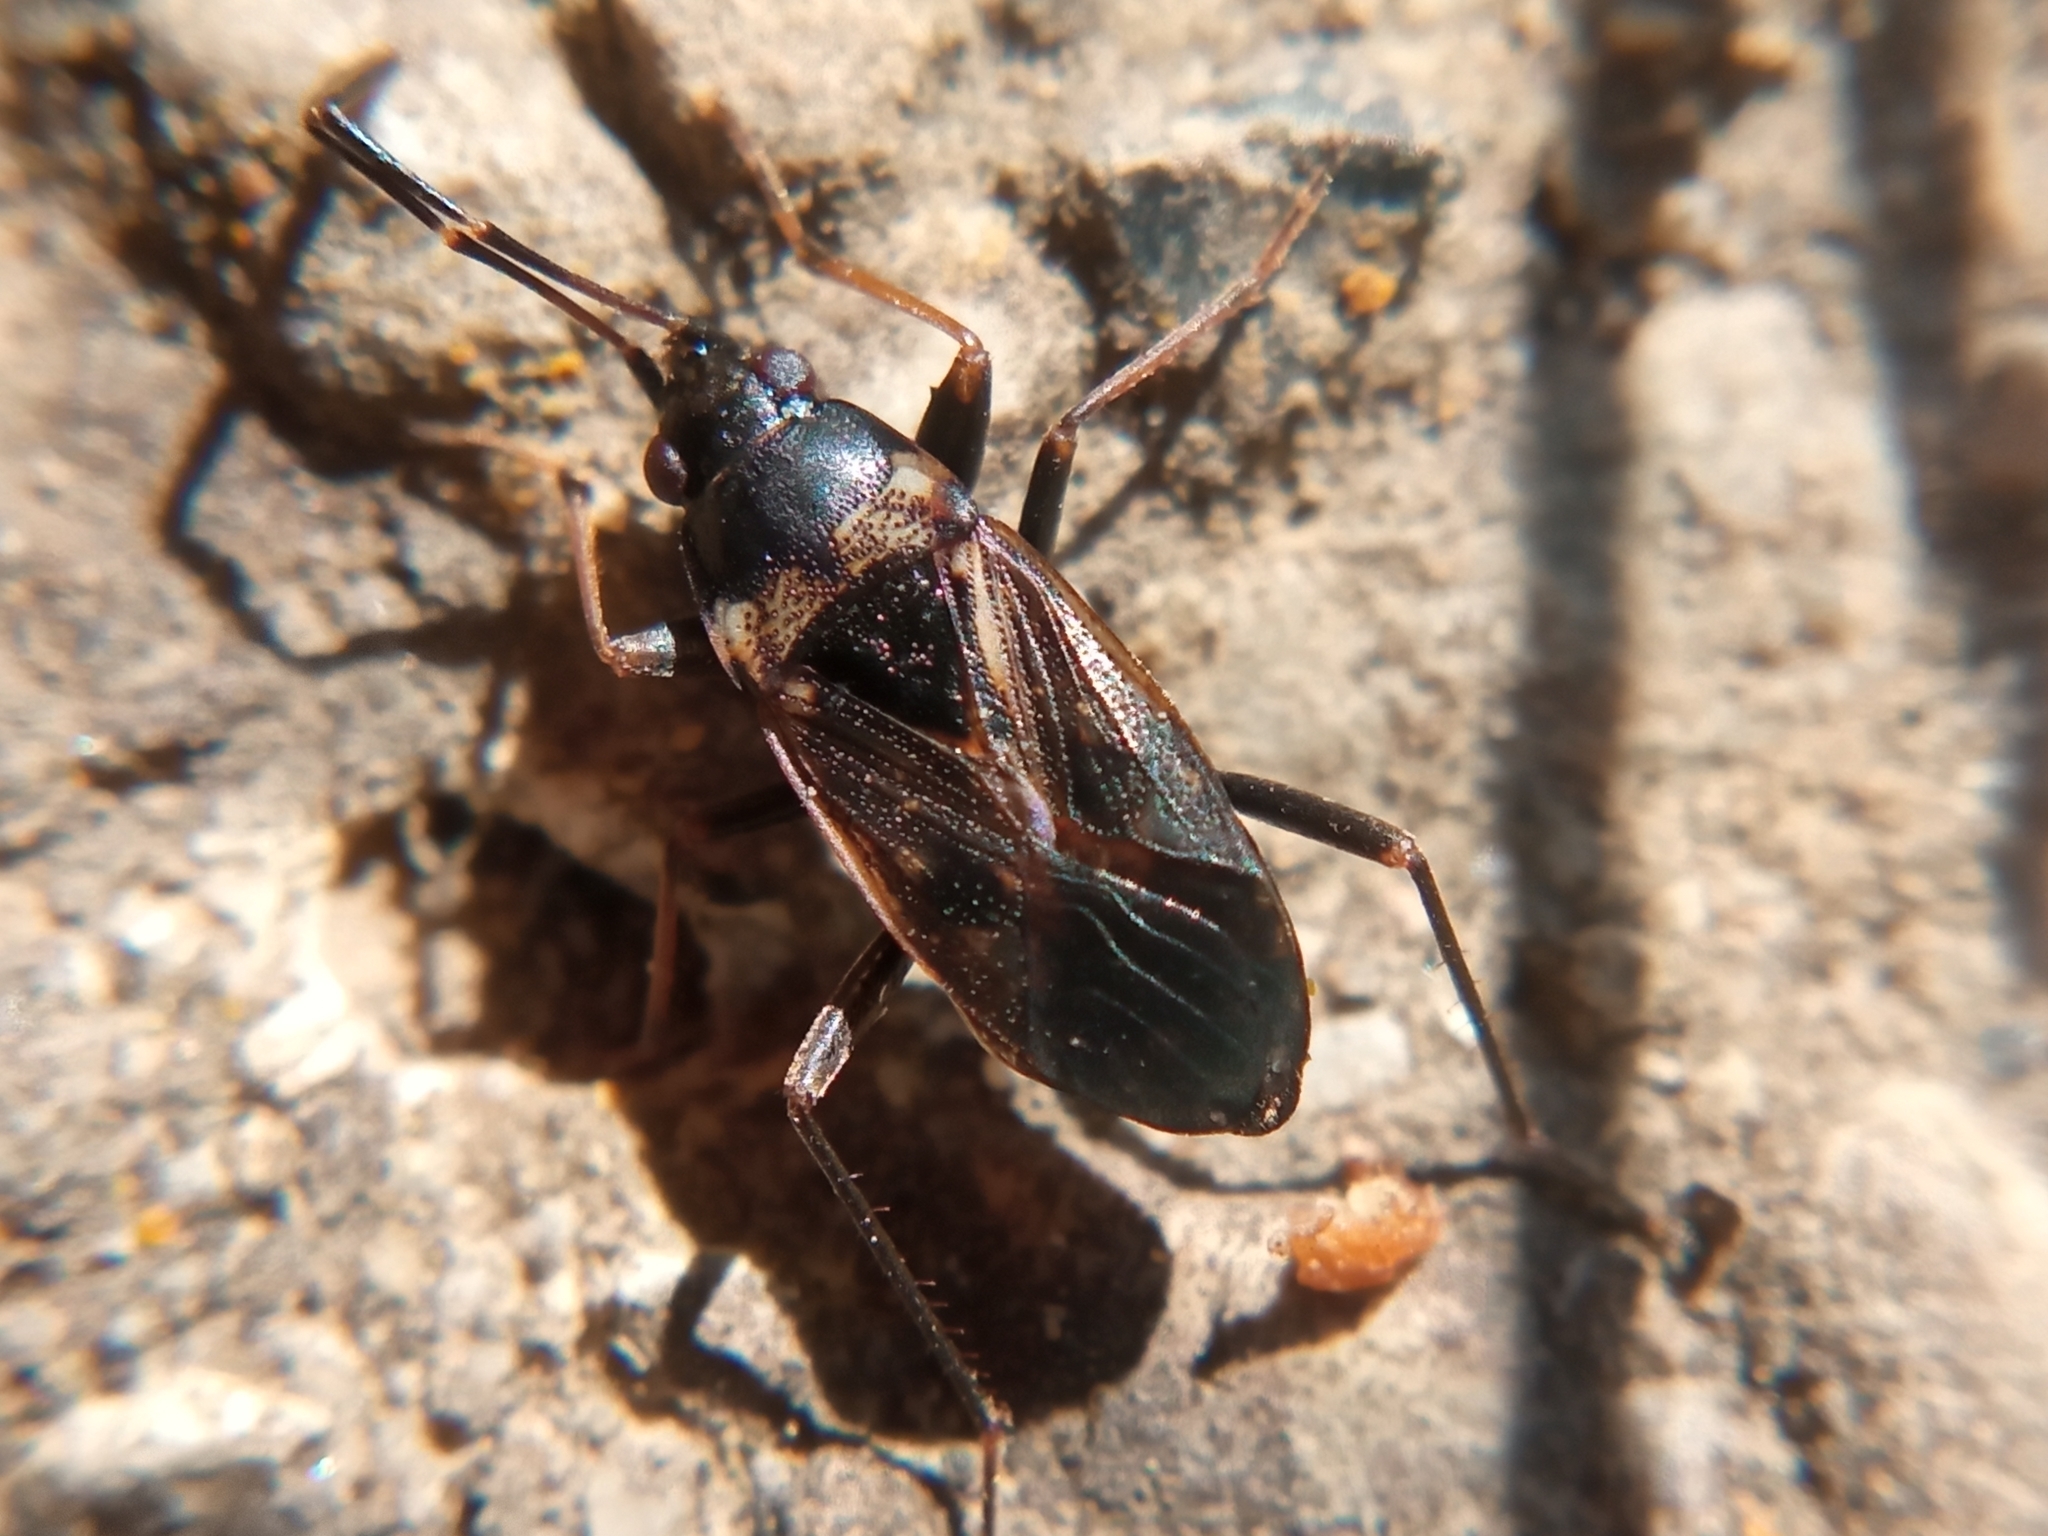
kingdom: Animalia
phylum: Arthropoda
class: Insecta
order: Hemiptera
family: Rhyparochromidae
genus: Rhyparochromus
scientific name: Rhyparochromus vulgaris
